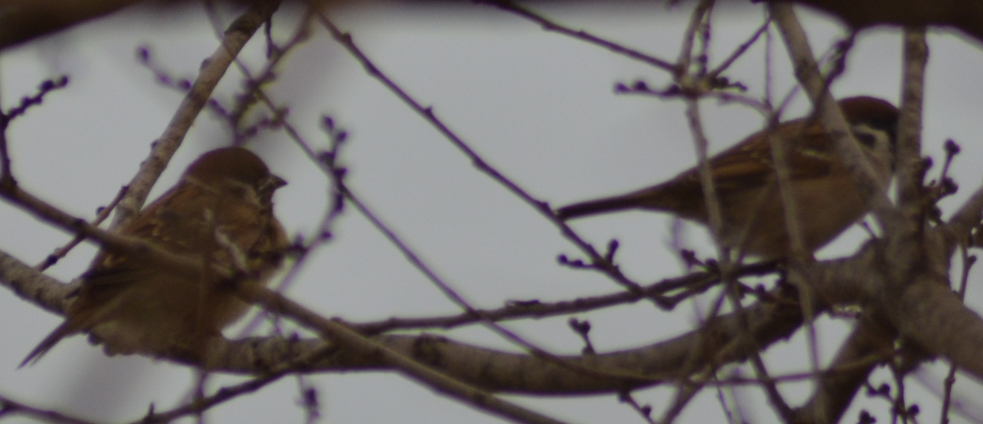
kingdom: Animalia
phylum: Chordata
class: Aves
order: Passeriformes
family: Passeridae
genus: Passer
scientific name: Passer montanus
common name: Eurasian tree sparrow
